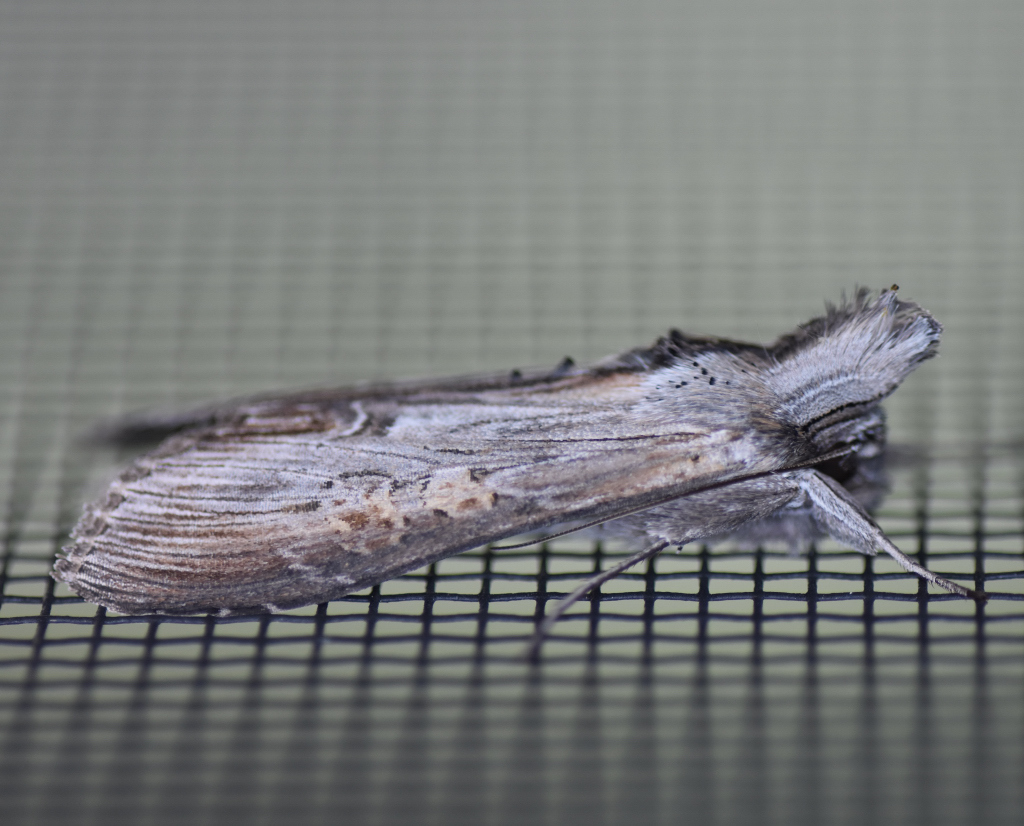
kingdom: Animalia
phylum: Arthropoda
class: Insecta
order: Lepidoptera
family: Noctuidae
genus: Cucullia
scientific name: Cucullia asteroides
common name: Asteroid moth
